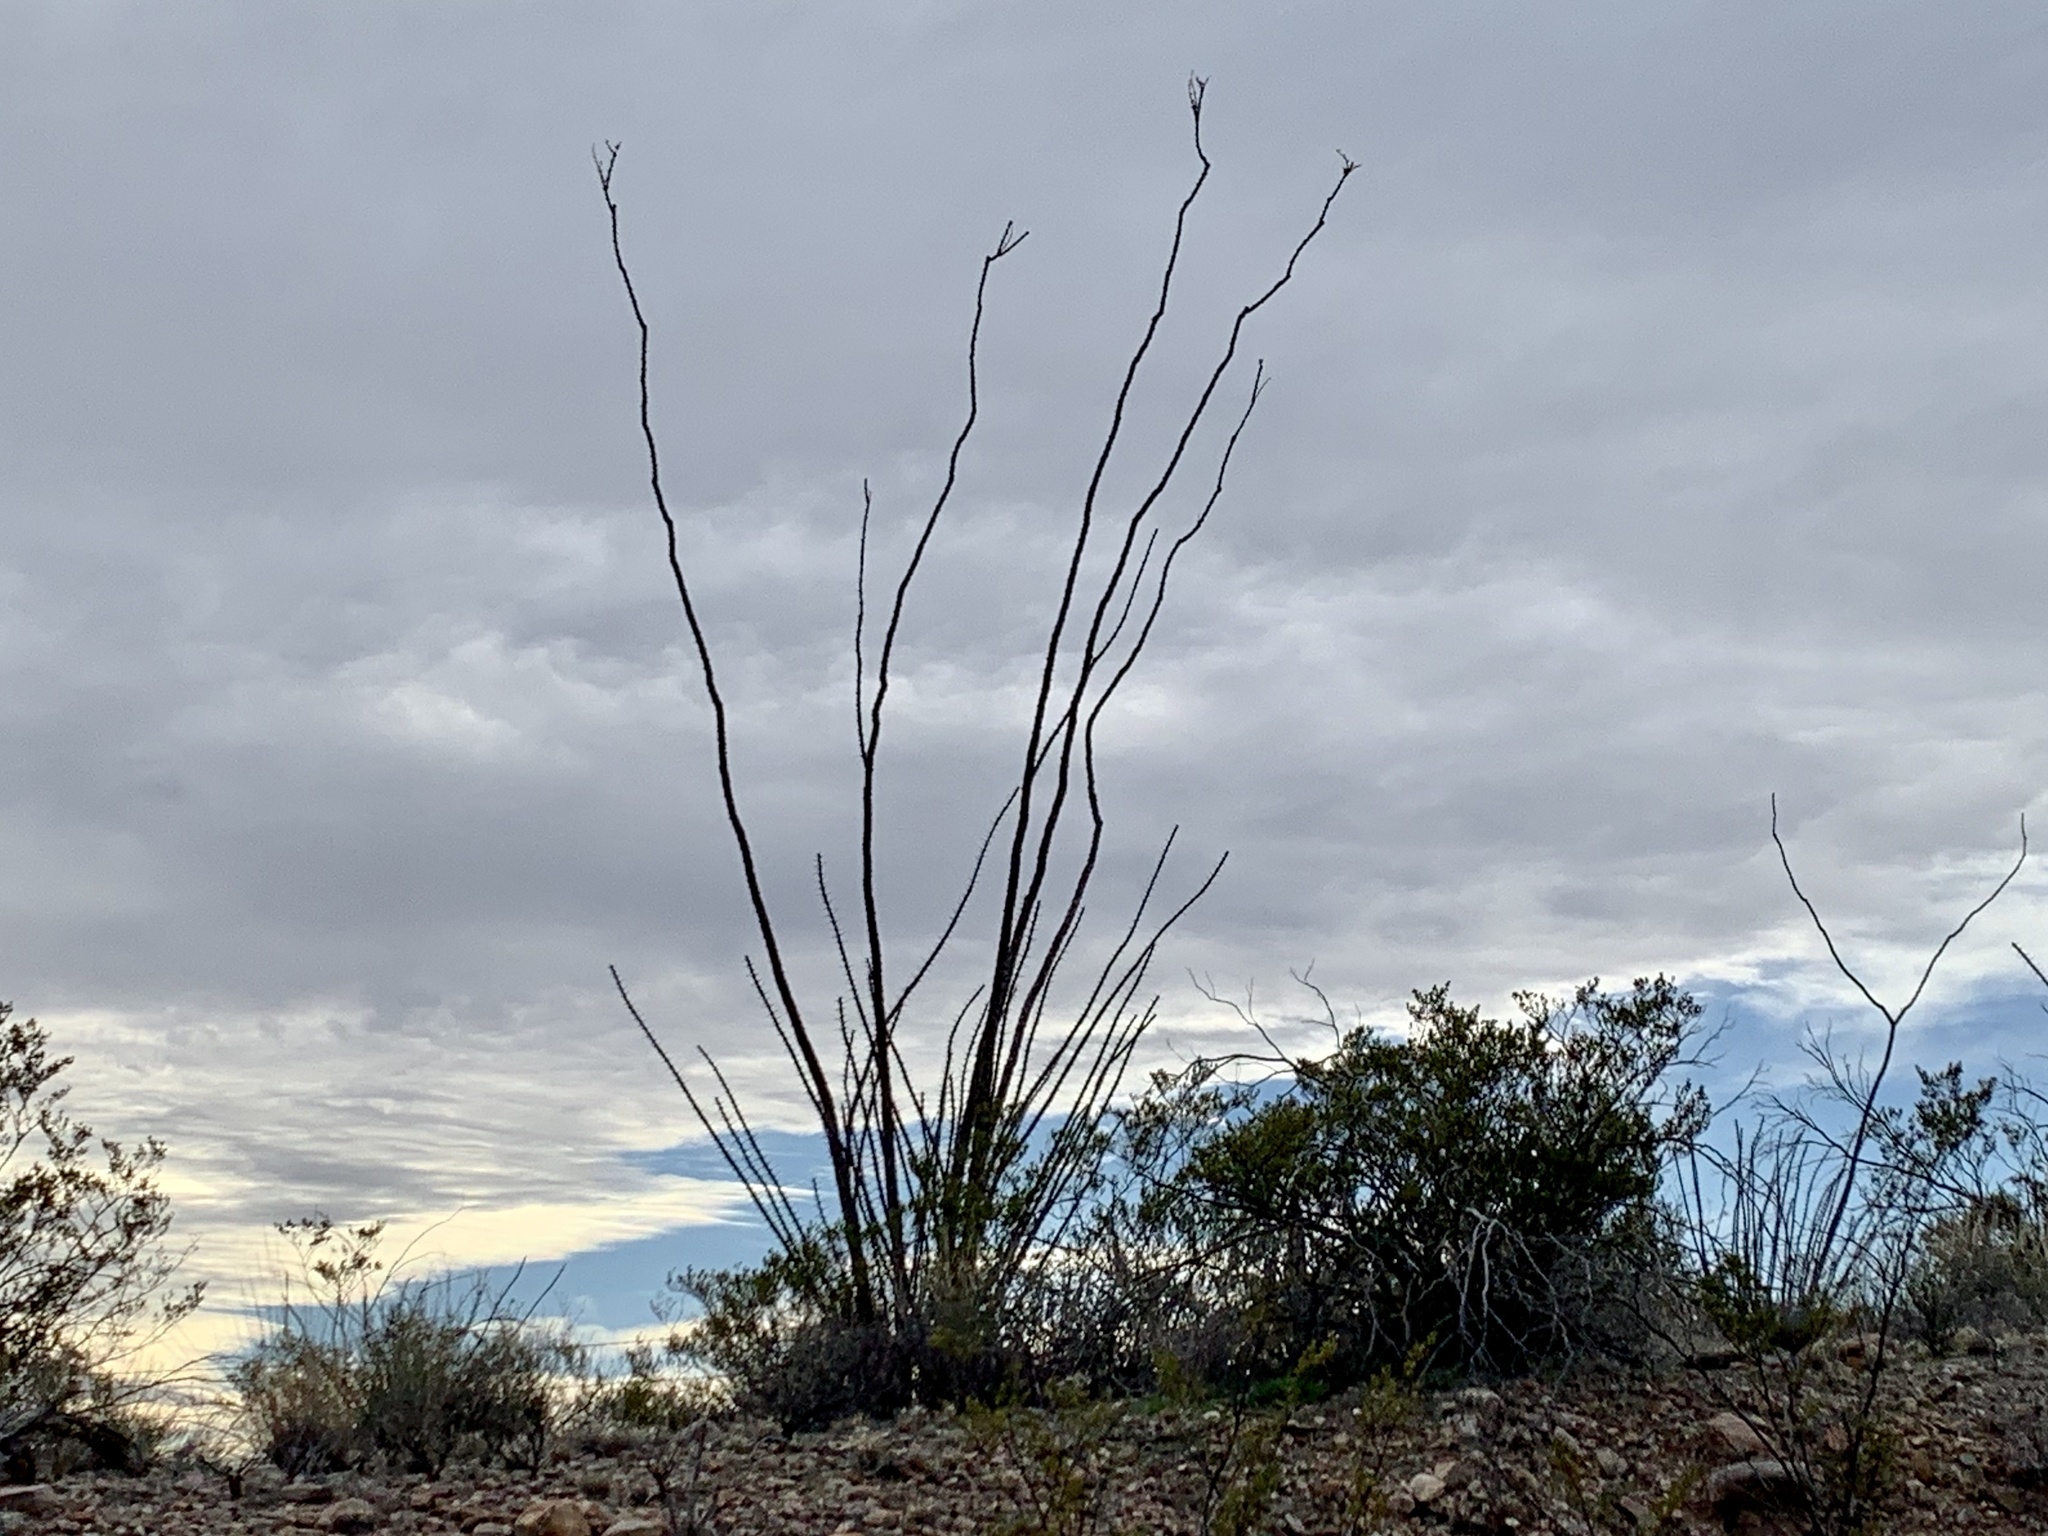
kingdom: Plantae
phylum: Tracheophyta
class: Magnoliopsida
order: Ericales
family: Fouquieriaceae
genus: Fouquieria
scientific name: Fouquieria splendens
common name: Vine-cactus
